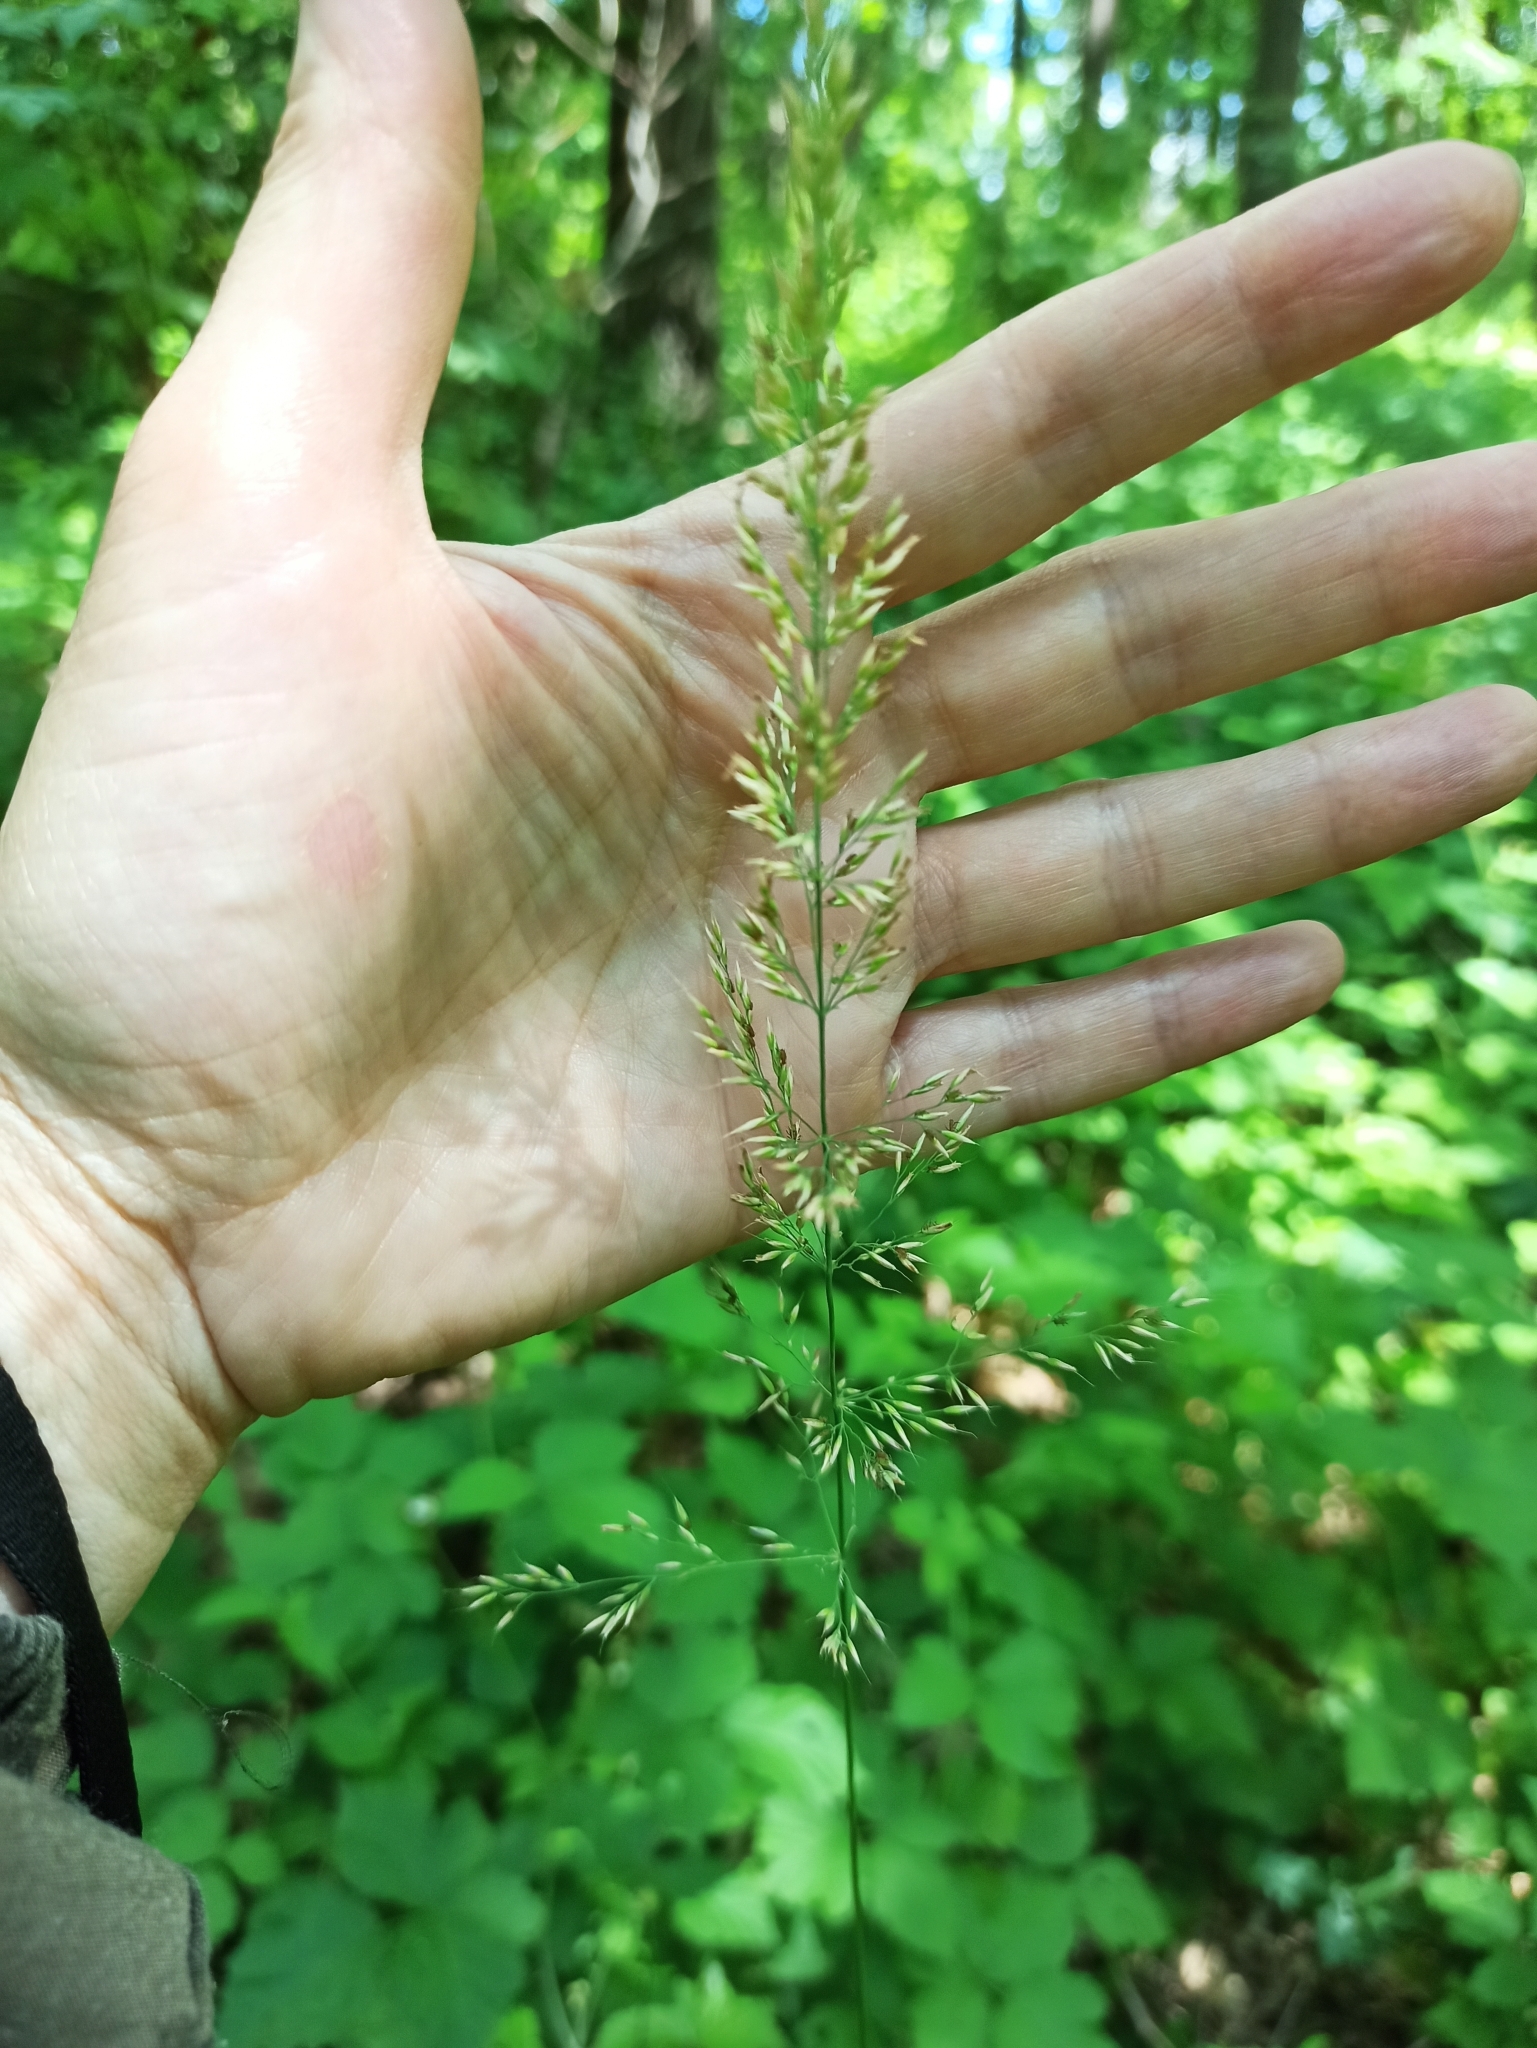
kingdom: Plantae
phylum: Tracheophyta
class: Liliopsida
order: Poales
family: Poaceae
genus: Calamagrostis
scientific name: Calamagrostis arundinacea
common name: Metskastik
